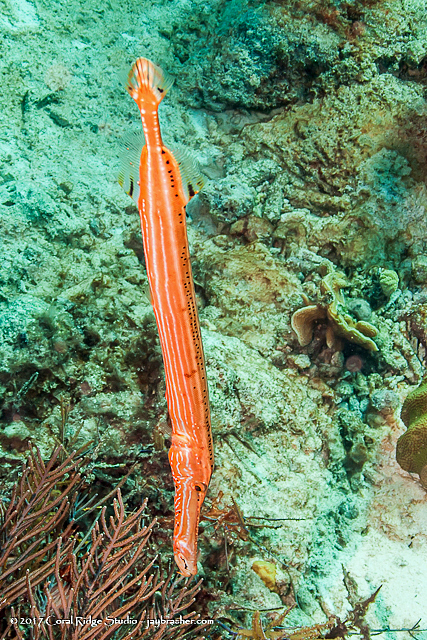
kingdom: Animalia
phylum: Chordata
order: Syngnathiformes
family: Aulostomidae
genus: Aulostomus
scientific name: Aulostomus maculatus
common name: West atlantic trumpetfish
